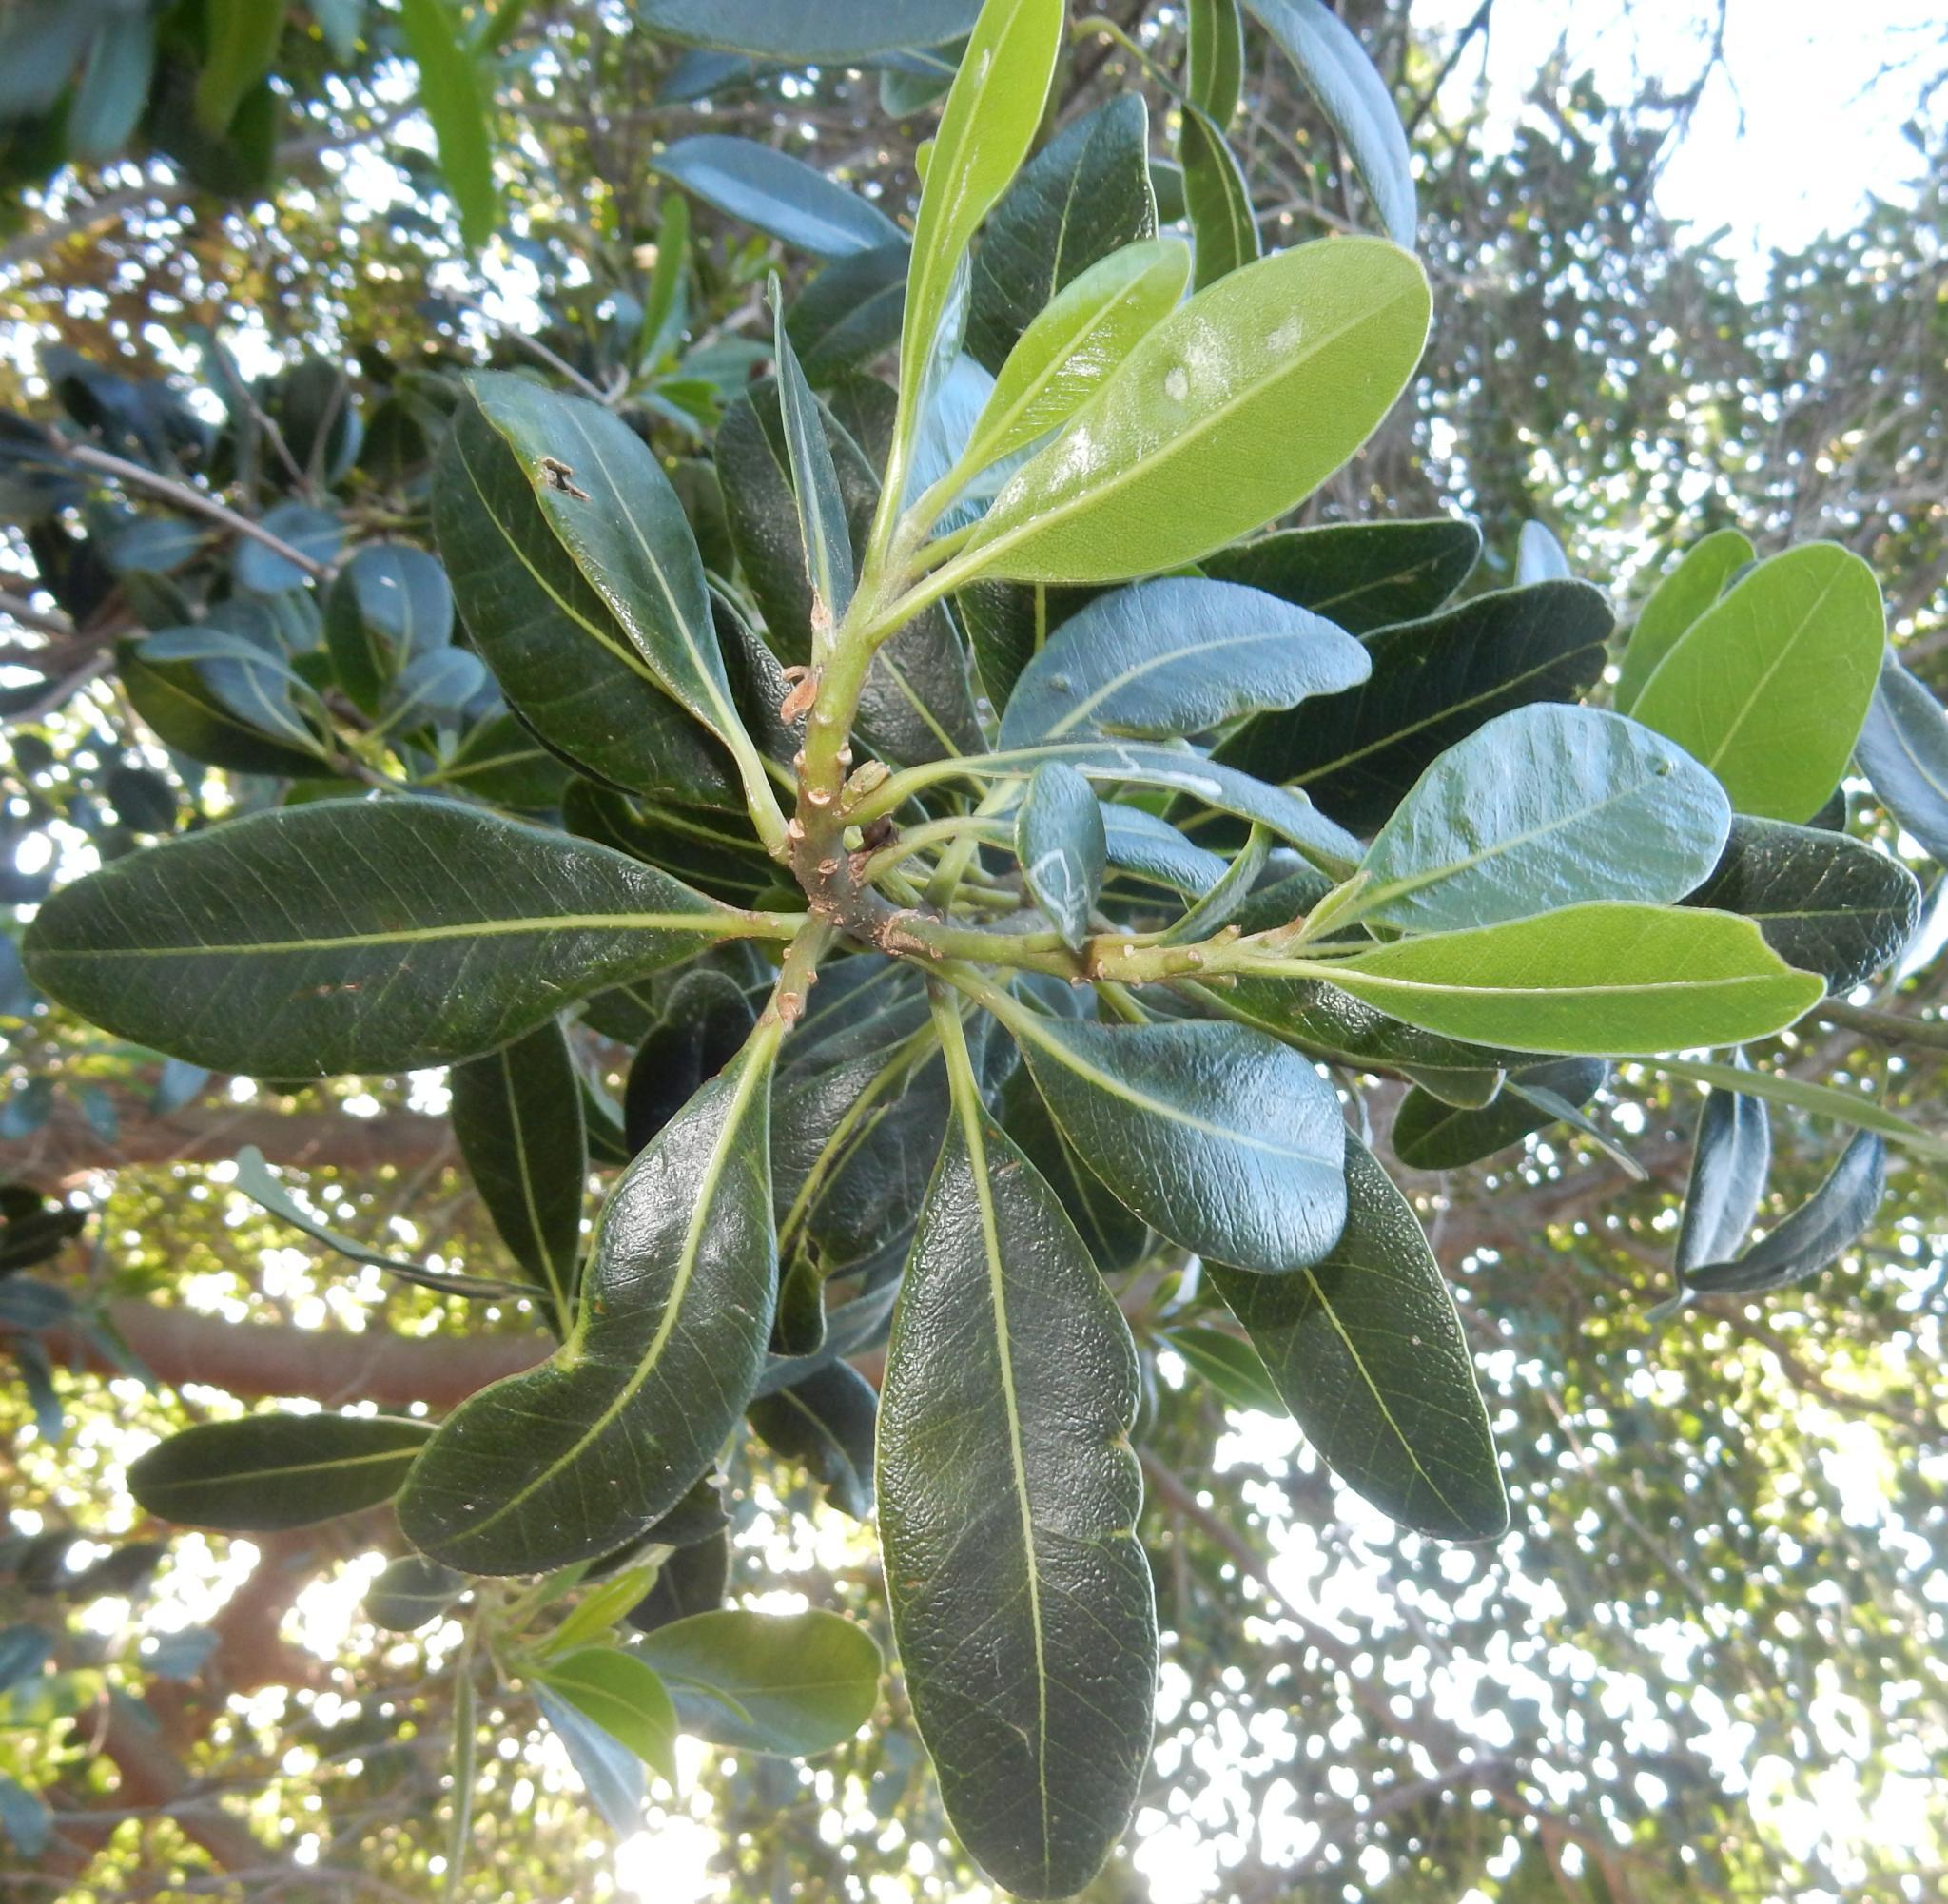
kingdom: Plantae
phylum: Tracheophyta
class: Magnoliopsida
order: Ericales
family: Sapotaceae
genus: Sideroxylon
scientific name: Sideroxylon inerme
